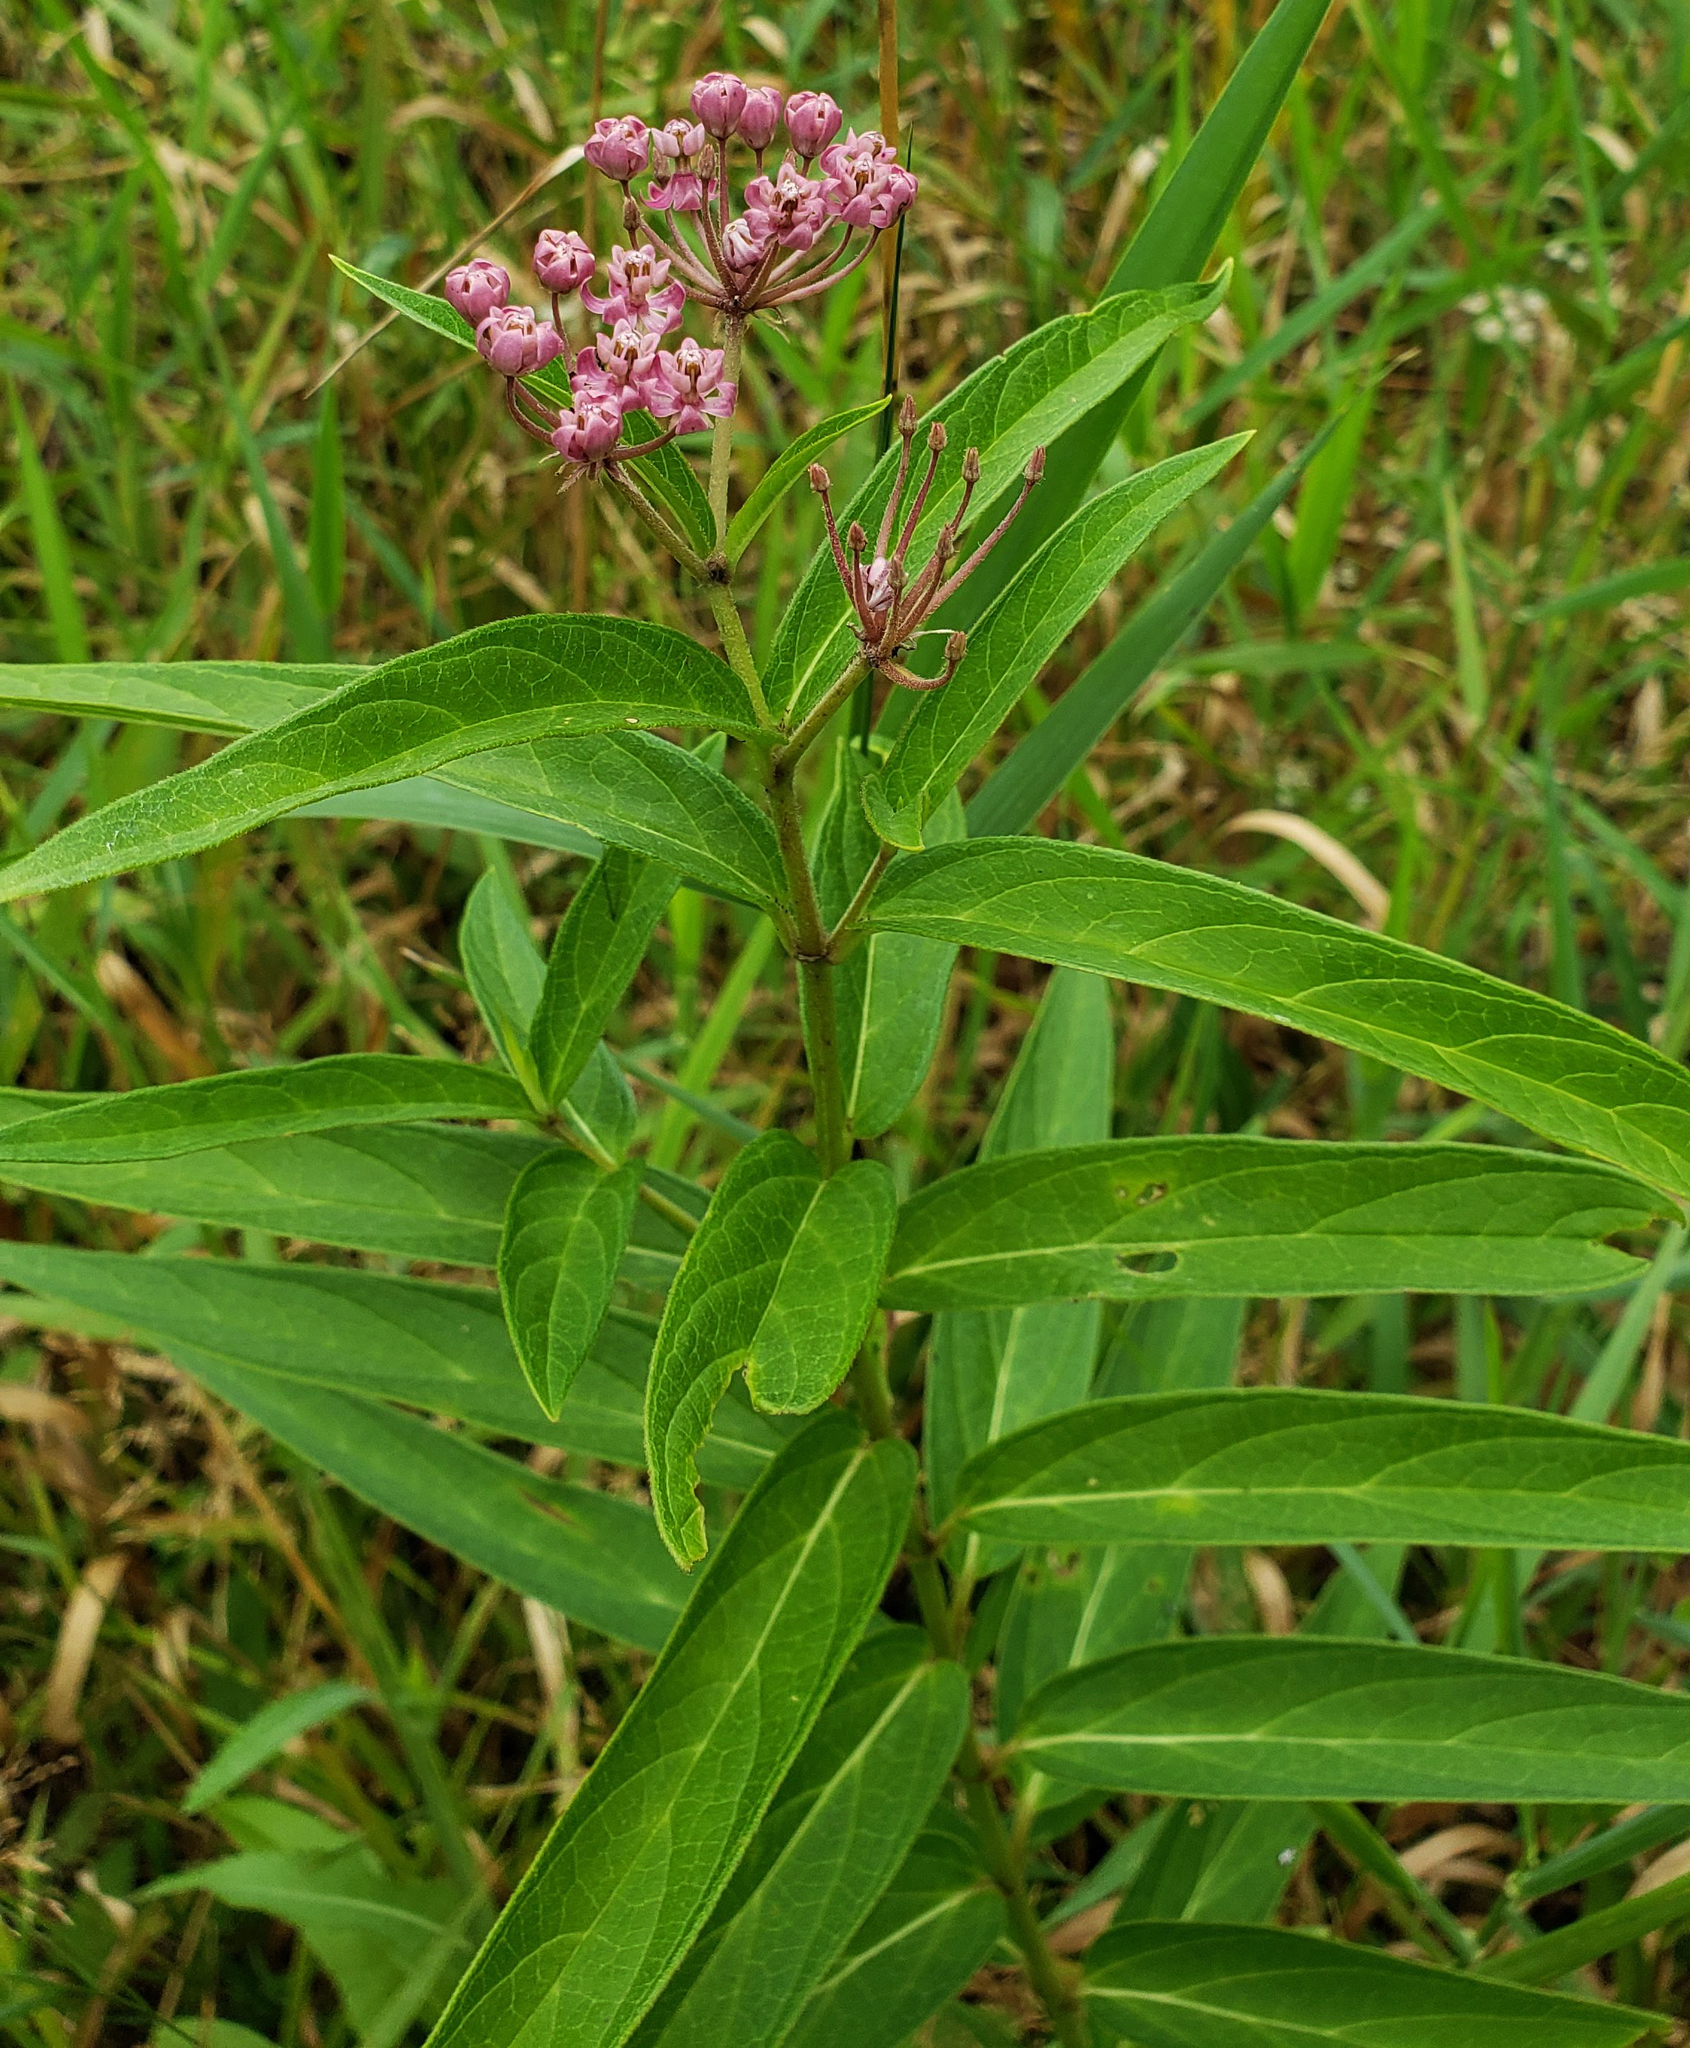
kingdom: Plantae
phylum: Tracheophyta
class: Magnoliopsida
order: Gentianales
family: Apocynaceae
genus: Asclepias
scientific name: Asclepias incarnata
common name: Swamp milkweed
